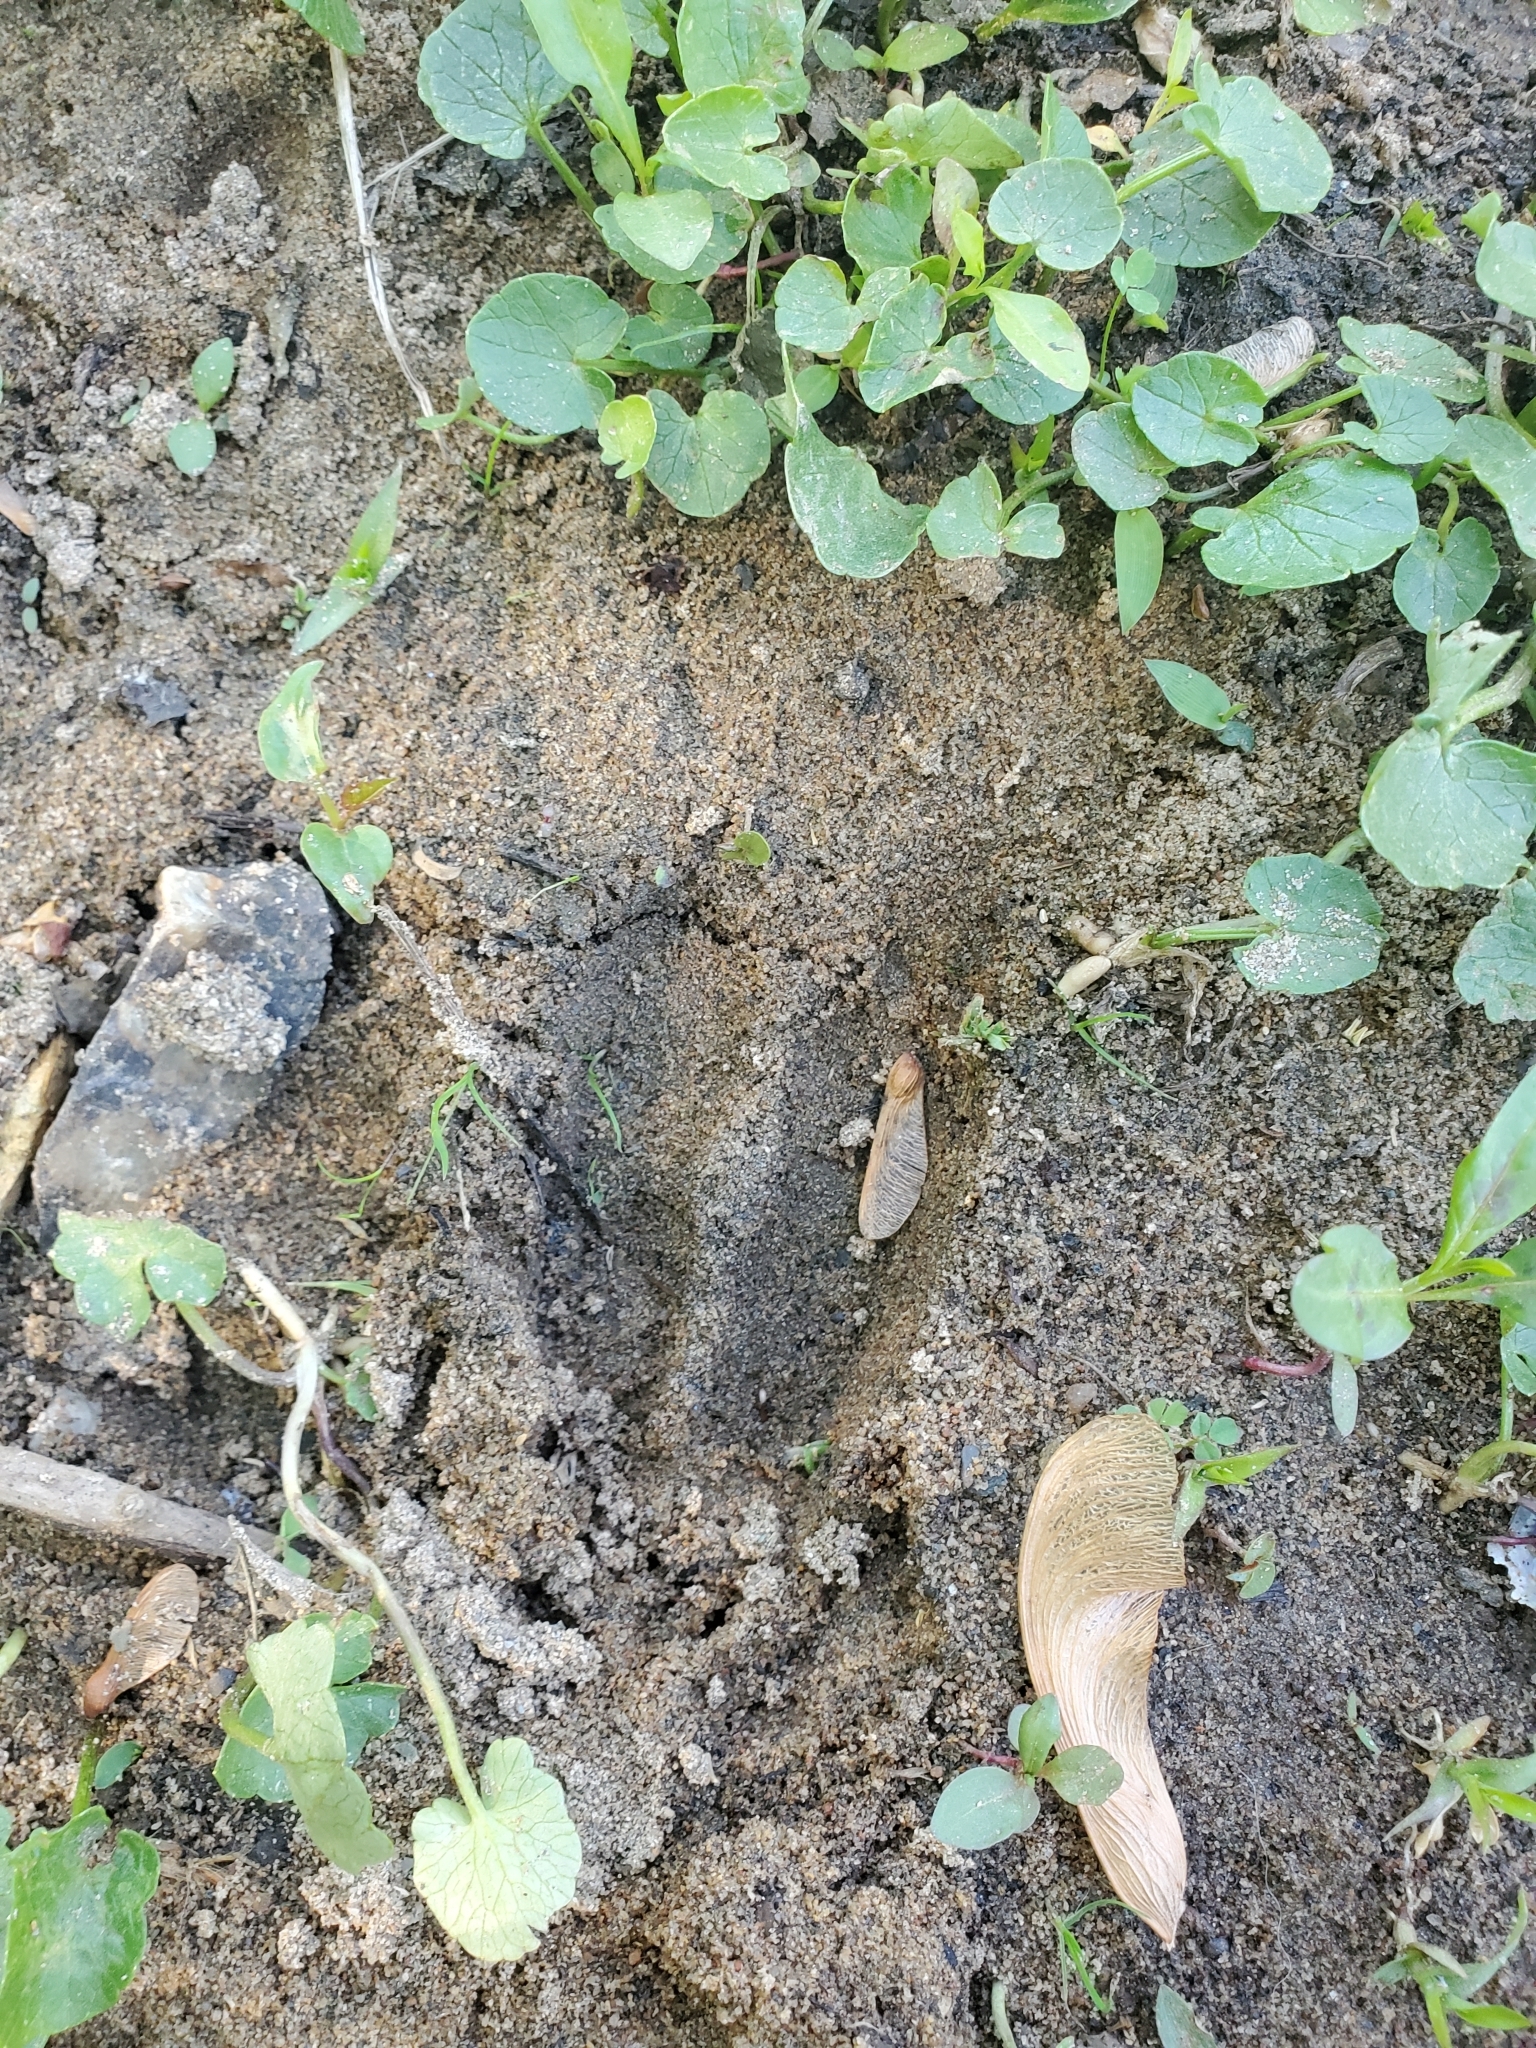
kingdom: Animalia
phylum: Chordata
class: Mammalia
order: Artiodactyla
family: Cervidae
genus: Odocoileus
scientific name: Odocoileus virginianus
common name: White-tailed deer
